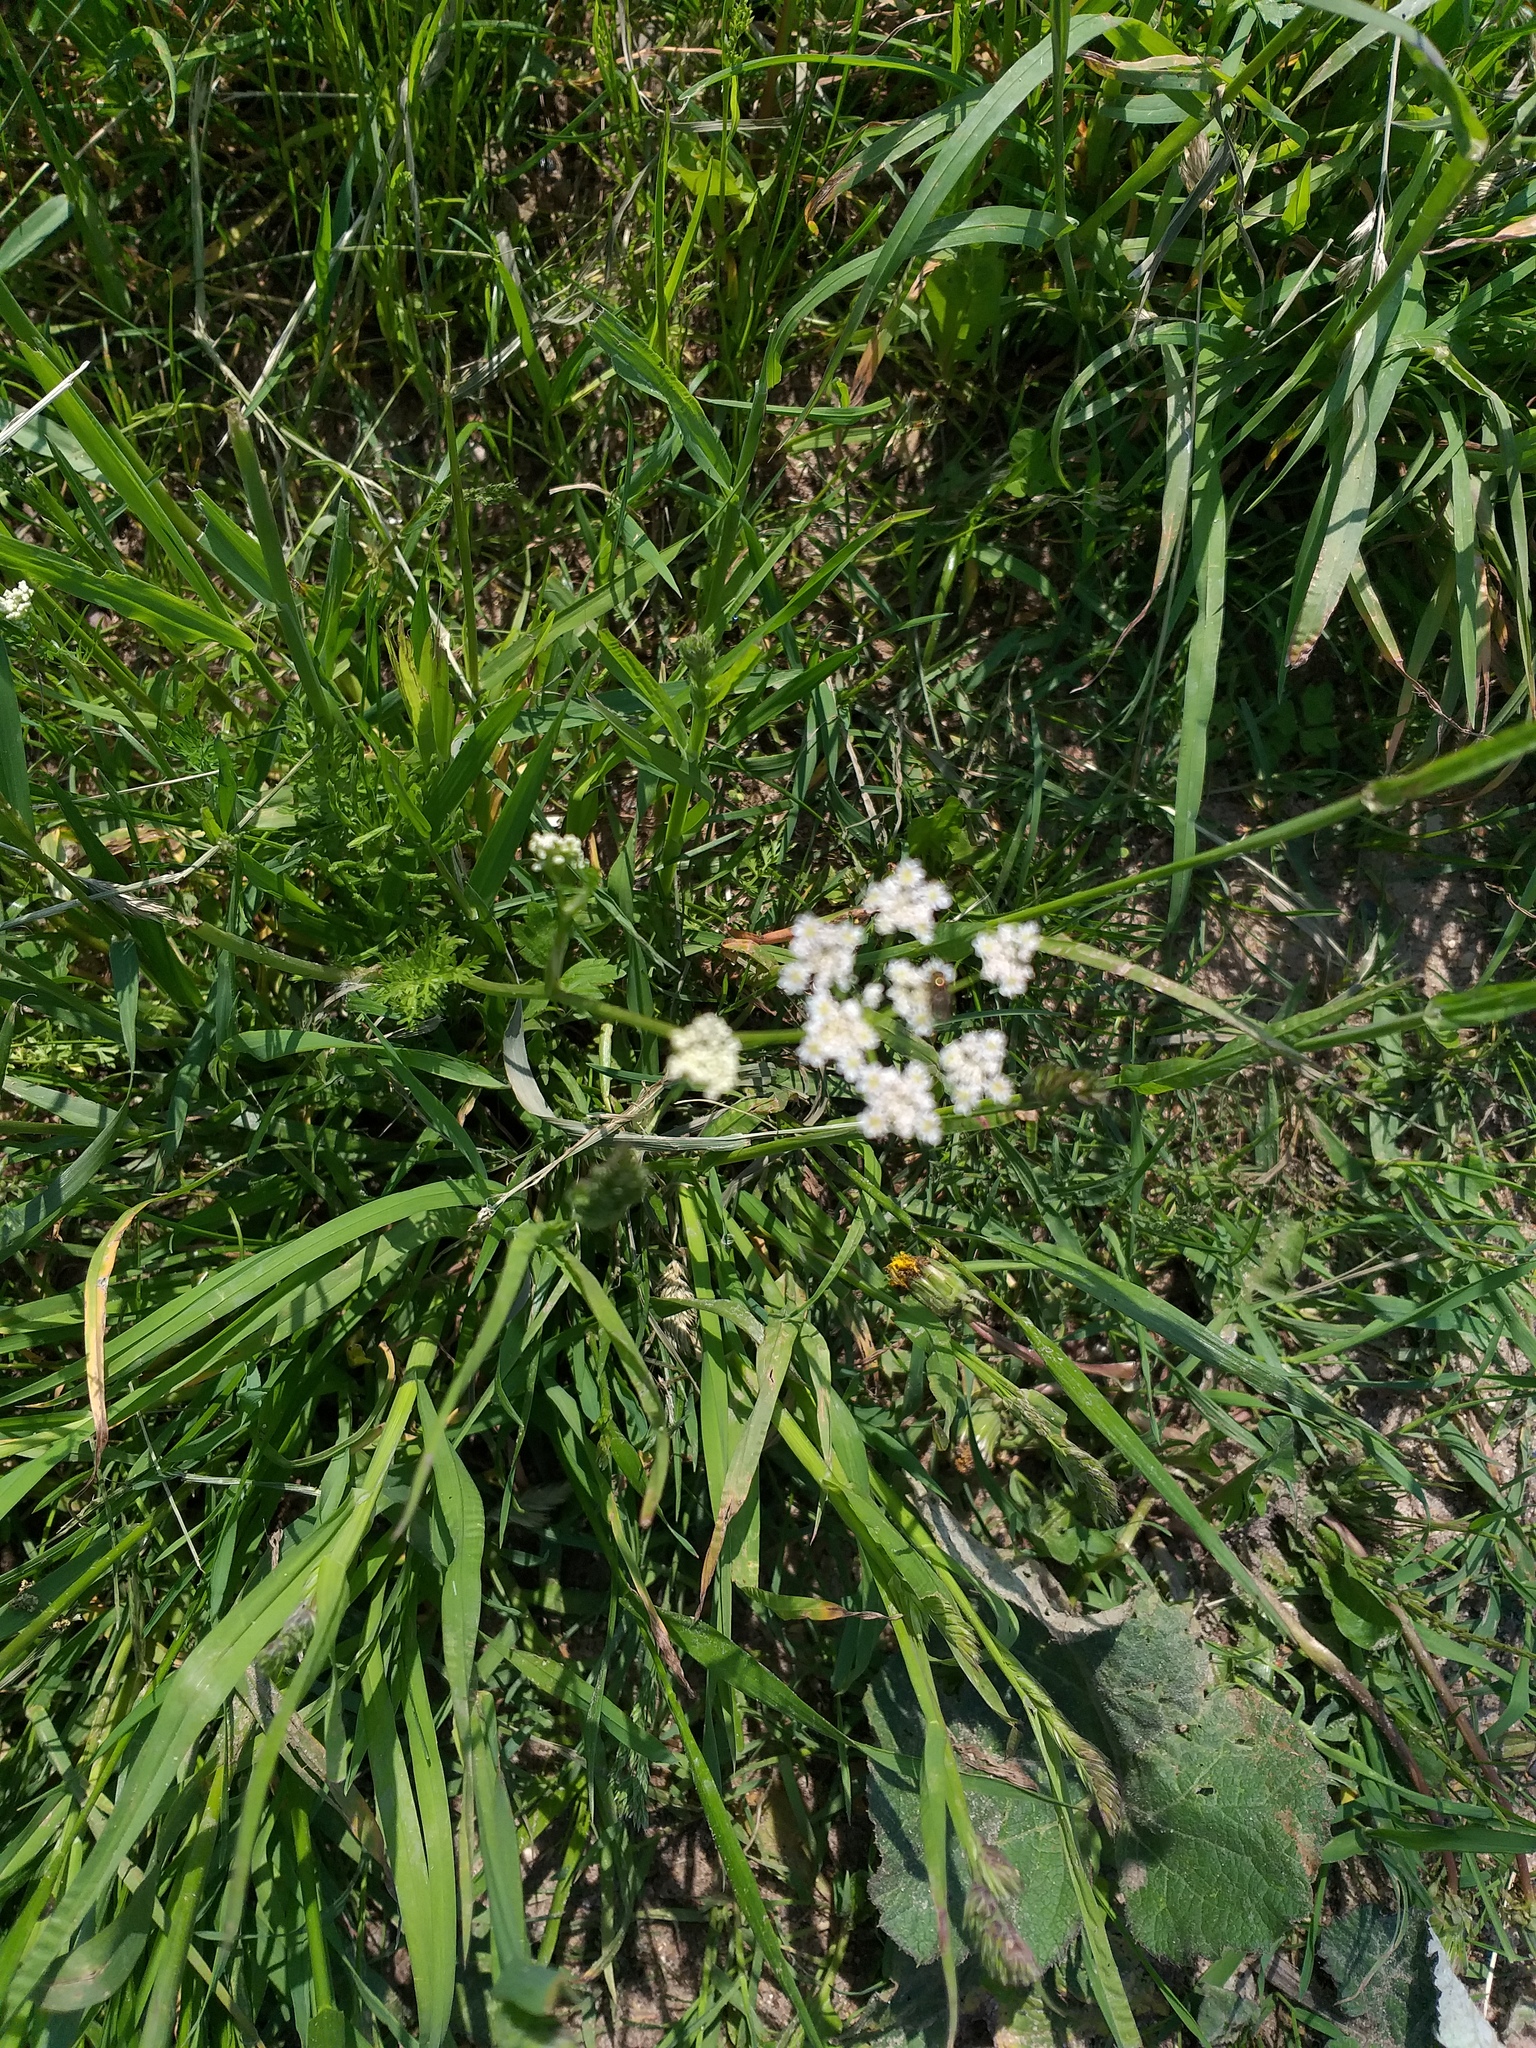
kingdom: Plantae
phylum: Tracheophyta
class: Magnoliopsida
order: Apiales
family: Apiaceae
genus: Carum
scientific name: Carum carvi
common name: Caraway
